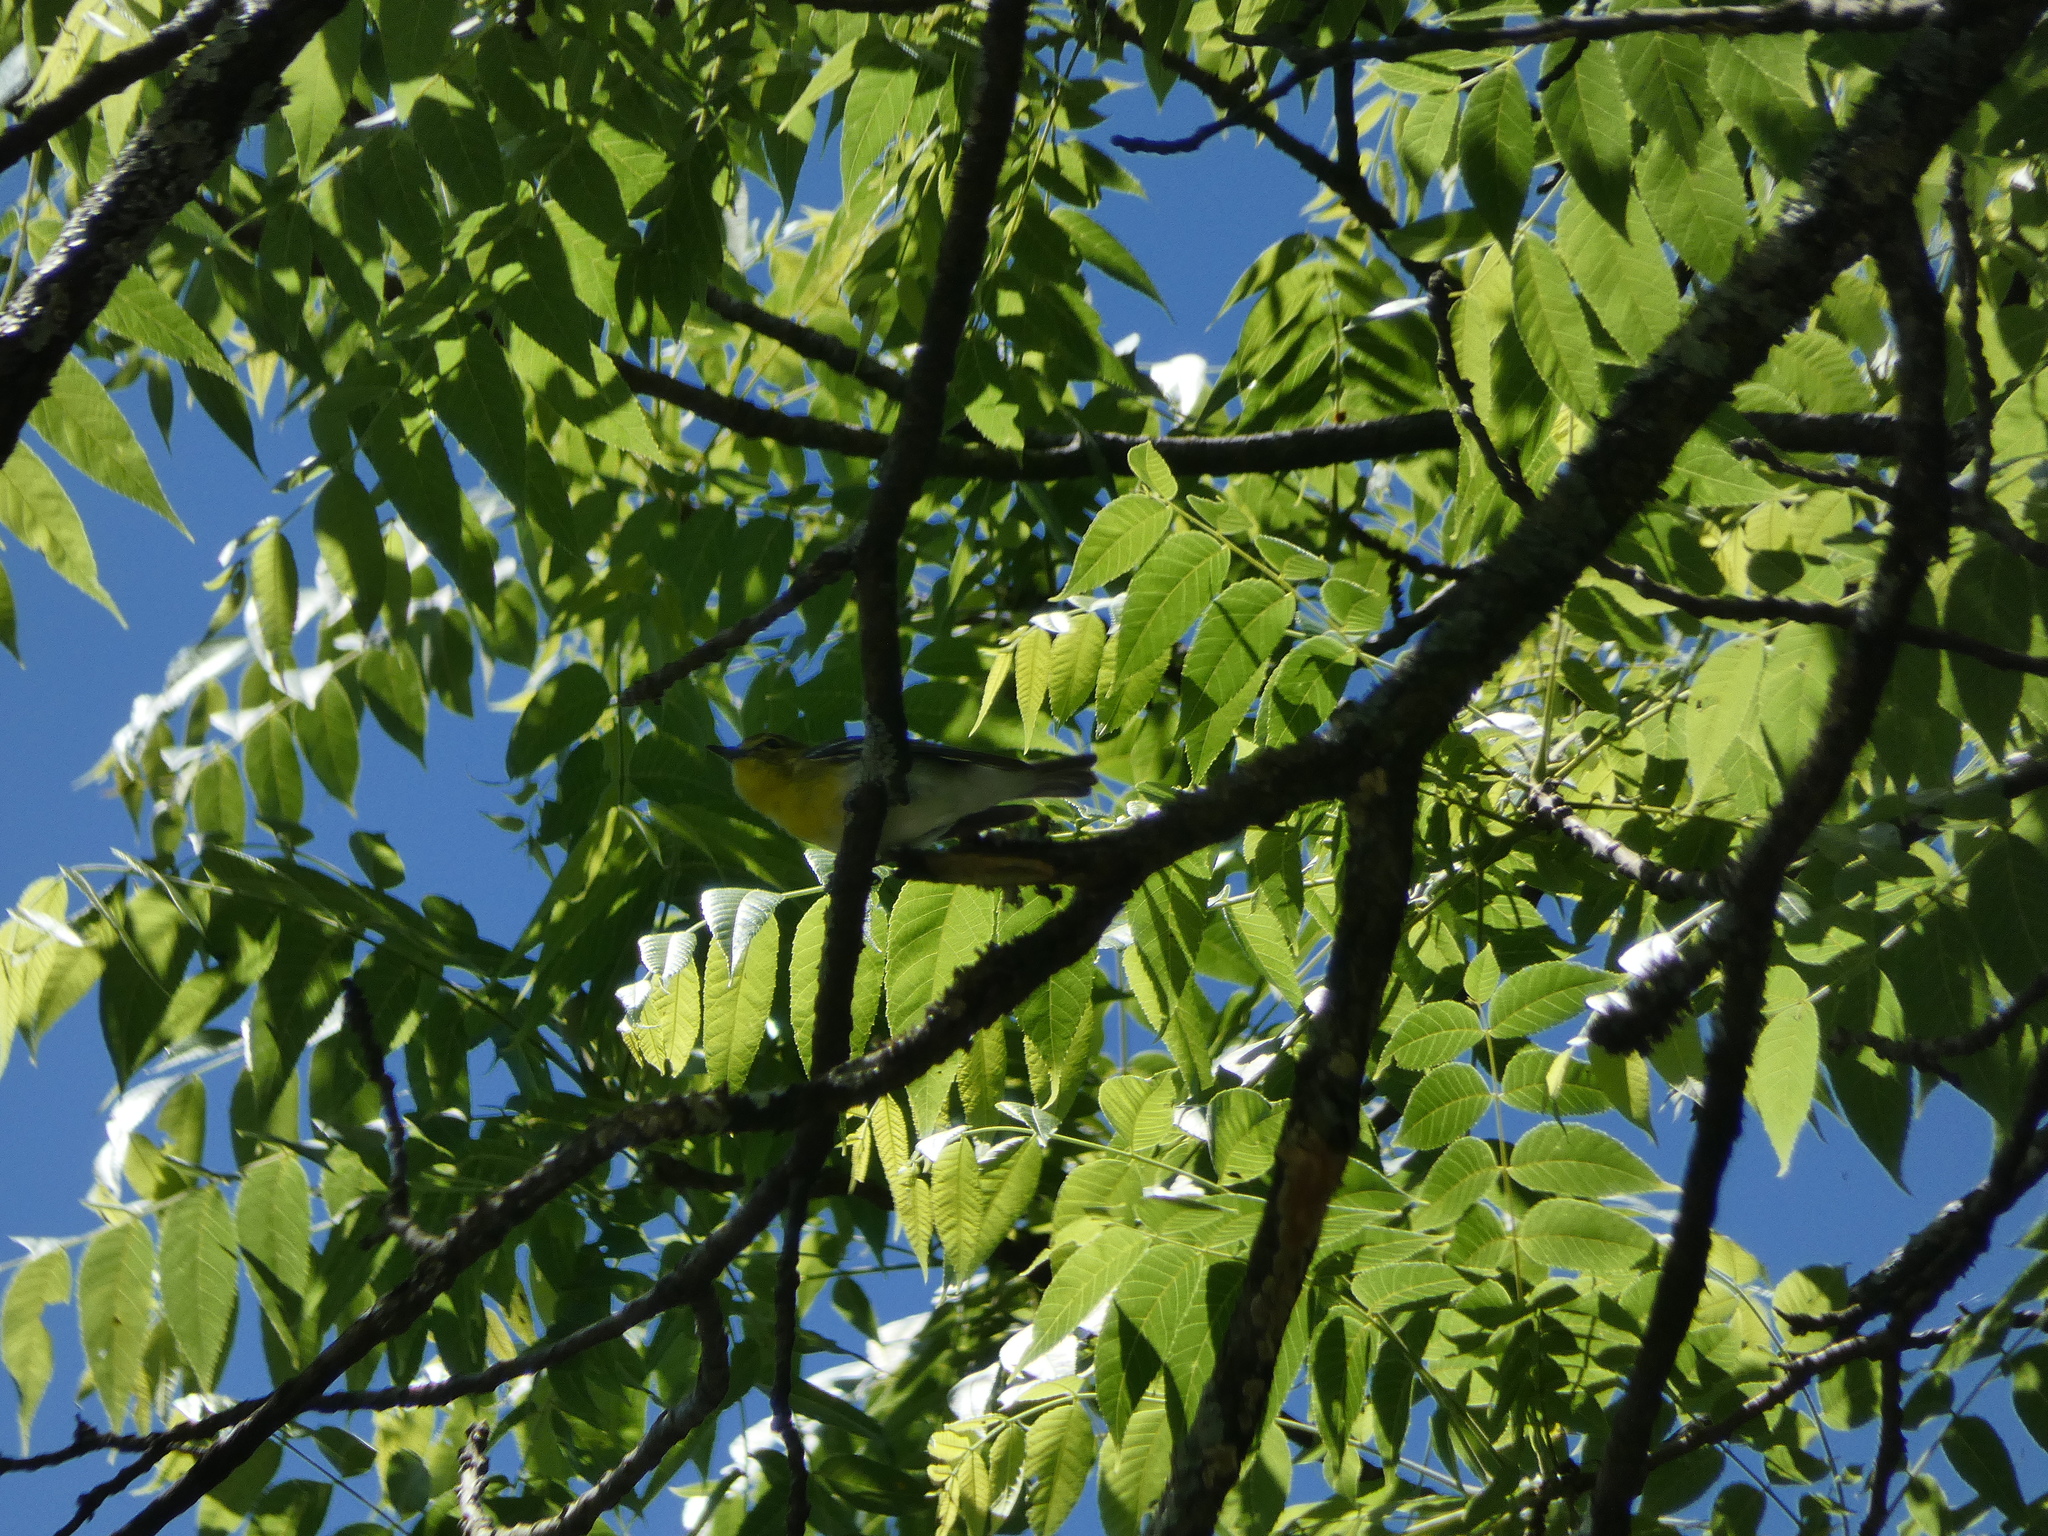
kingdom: Animalia
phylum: Chordata
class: Aves
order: Passeriformes
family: Vireonidae
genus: Vireo
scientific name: Vireo flavifrons
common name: Yellow-throated vireo
